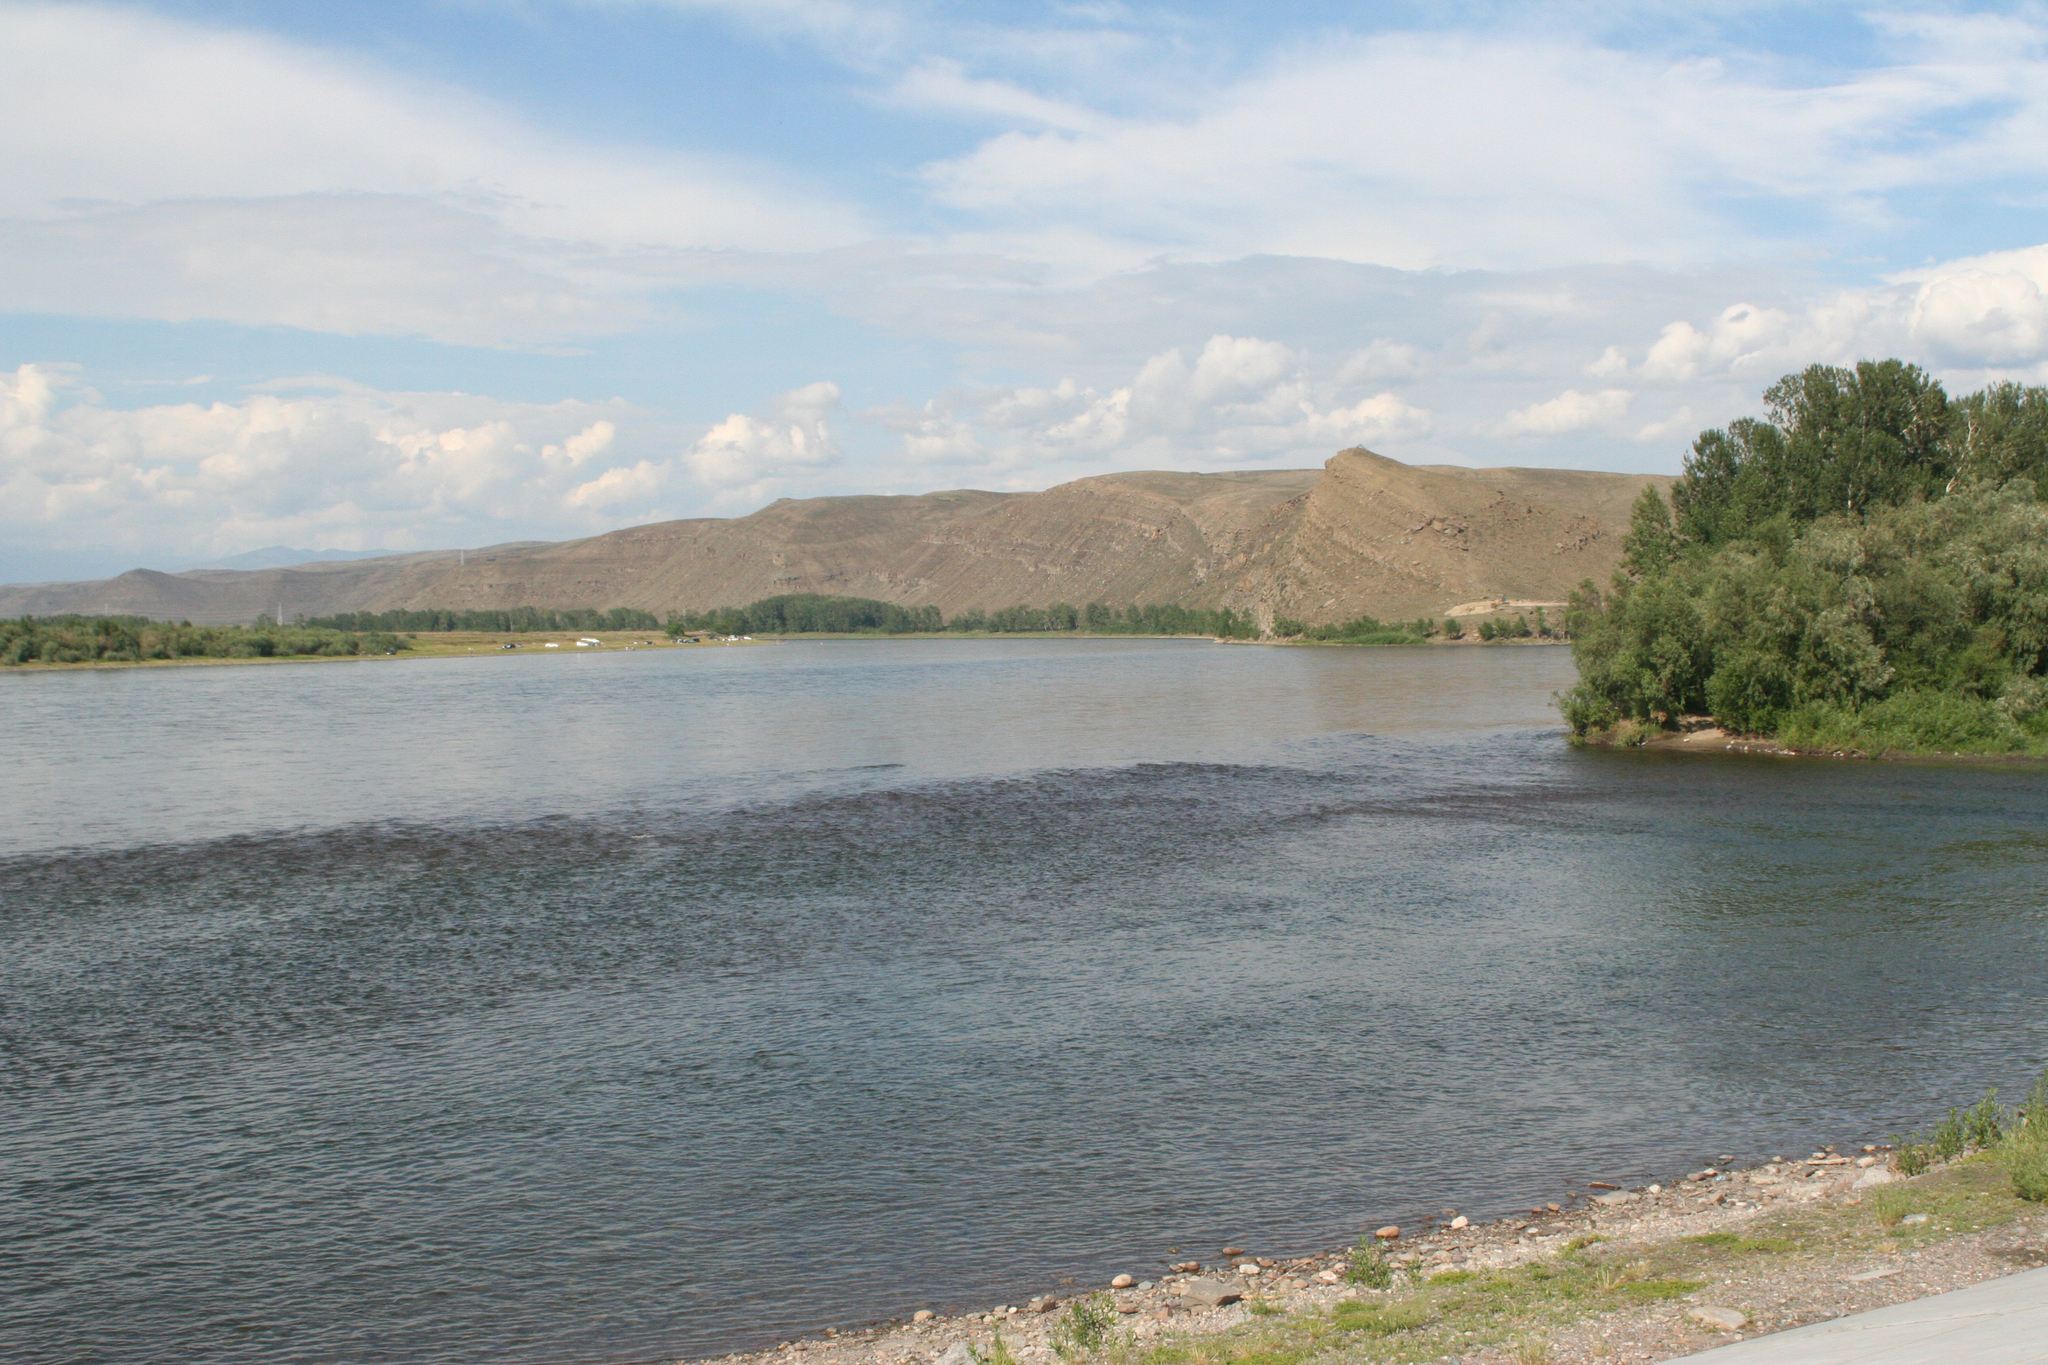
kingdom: Plantae
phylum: Tracheophyta
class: Magnoliopsida
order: Malpighiales
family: Salicaceae
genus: Populus
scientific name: Populus laurifolia
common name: Laurel-leaf poplar
